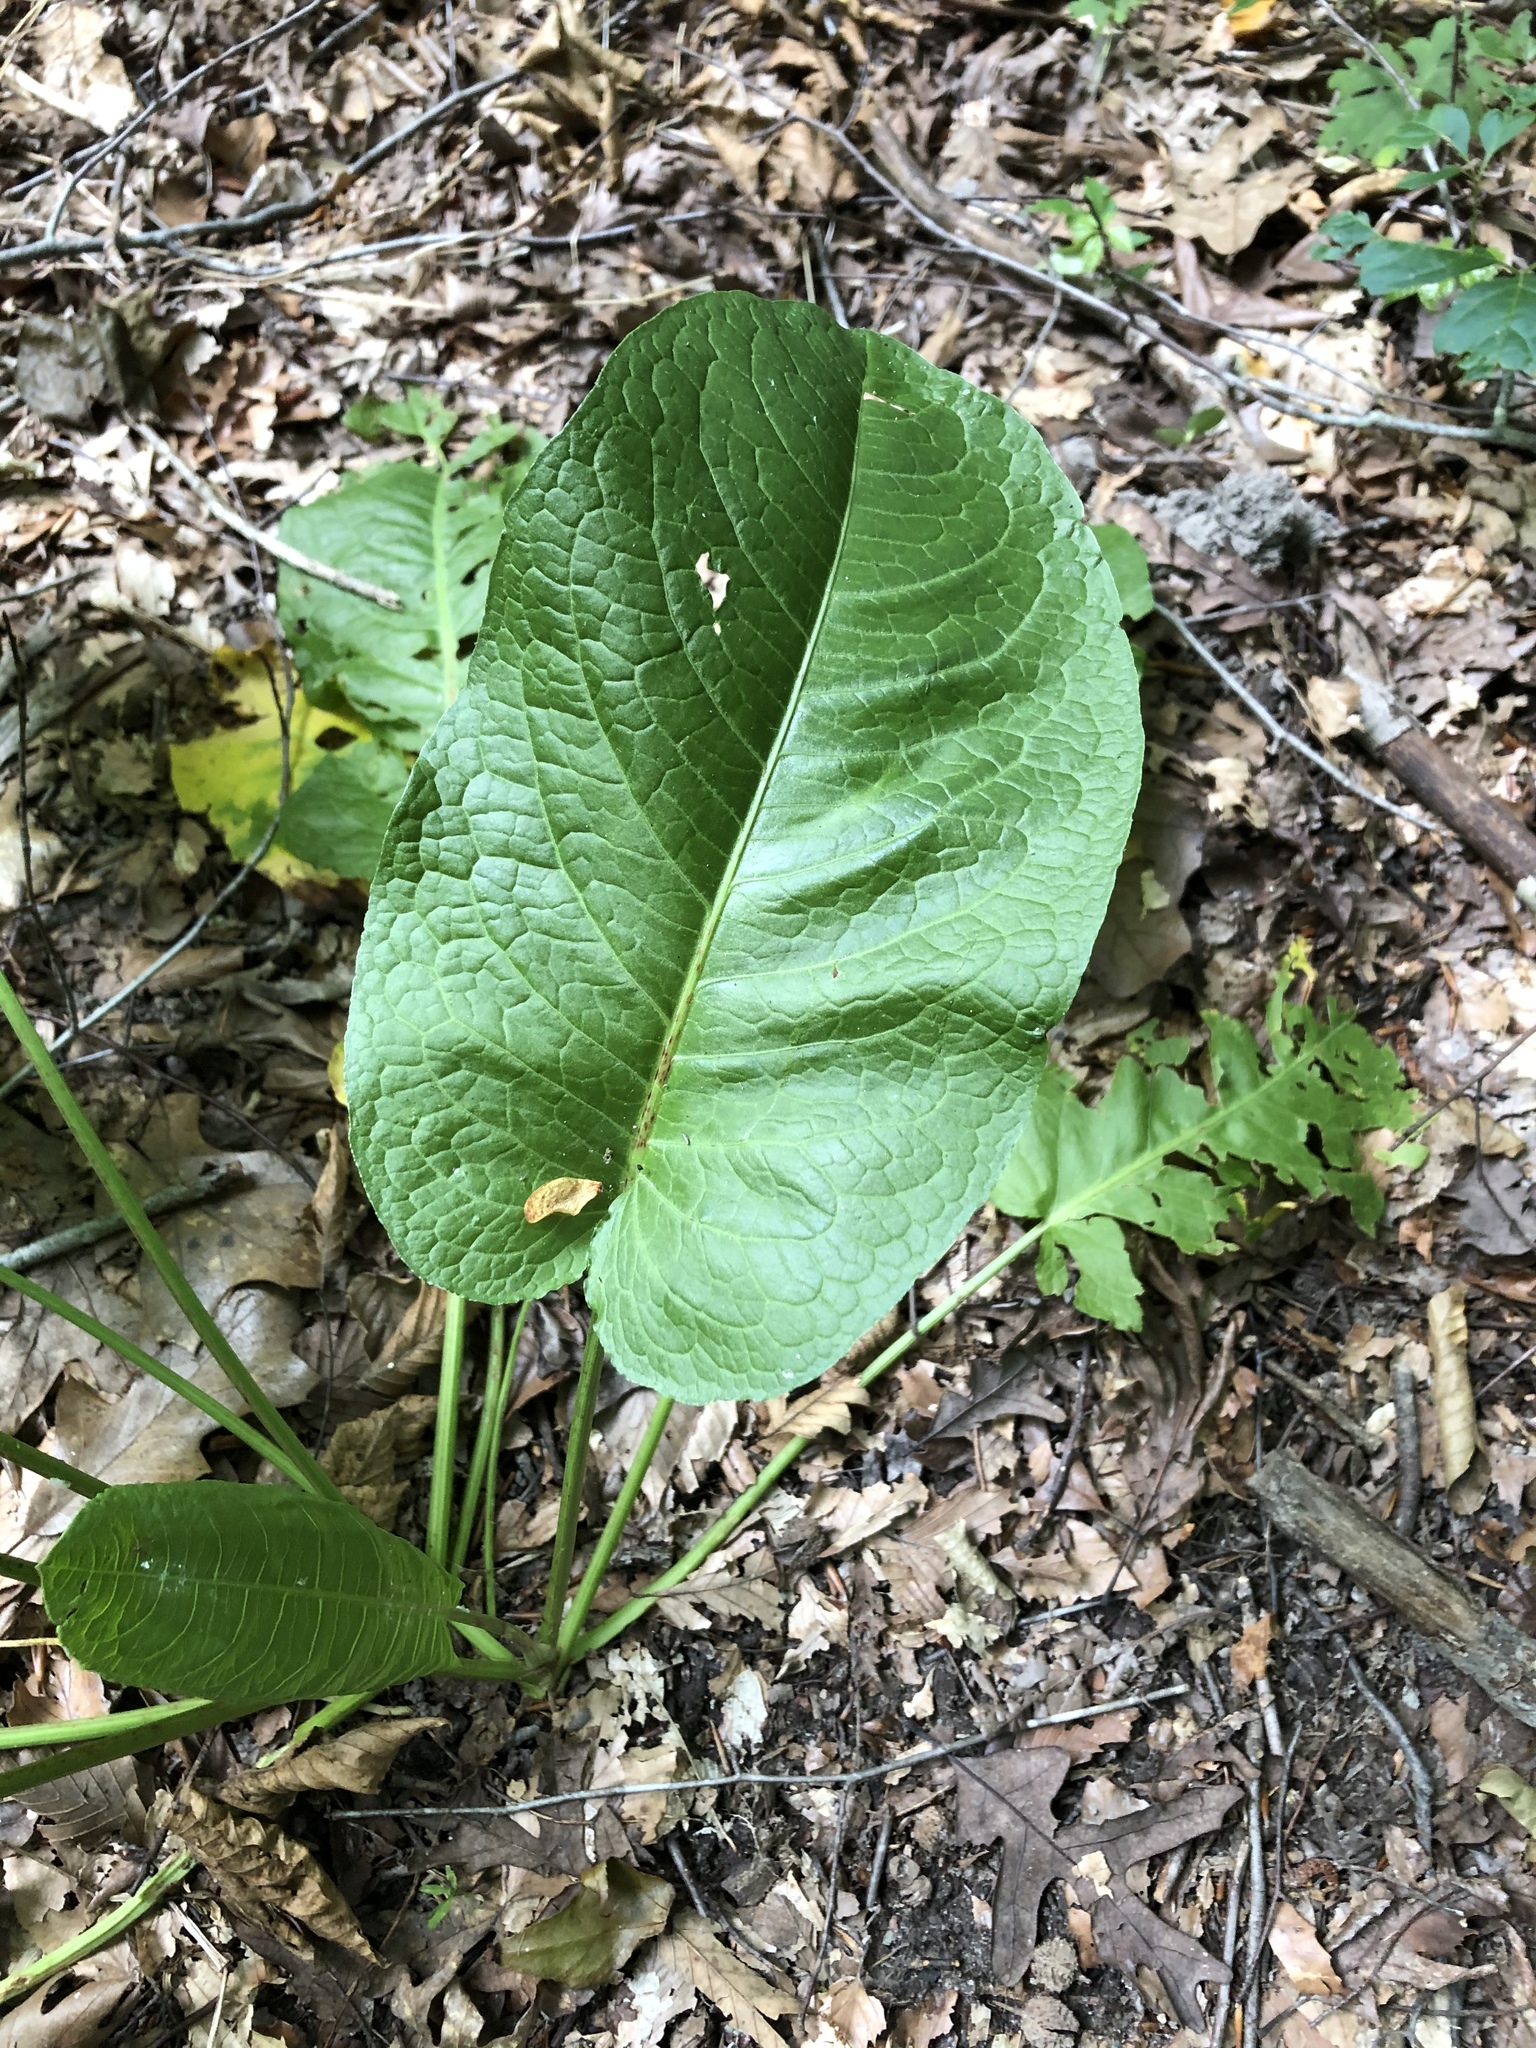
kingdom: Plantae
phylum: Tracheophyta
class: Magnoliopsida
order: Caryophyllales
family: Polygonaceae
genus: Rumex
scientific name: Rumex obtusifolius
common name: Bitter dock
